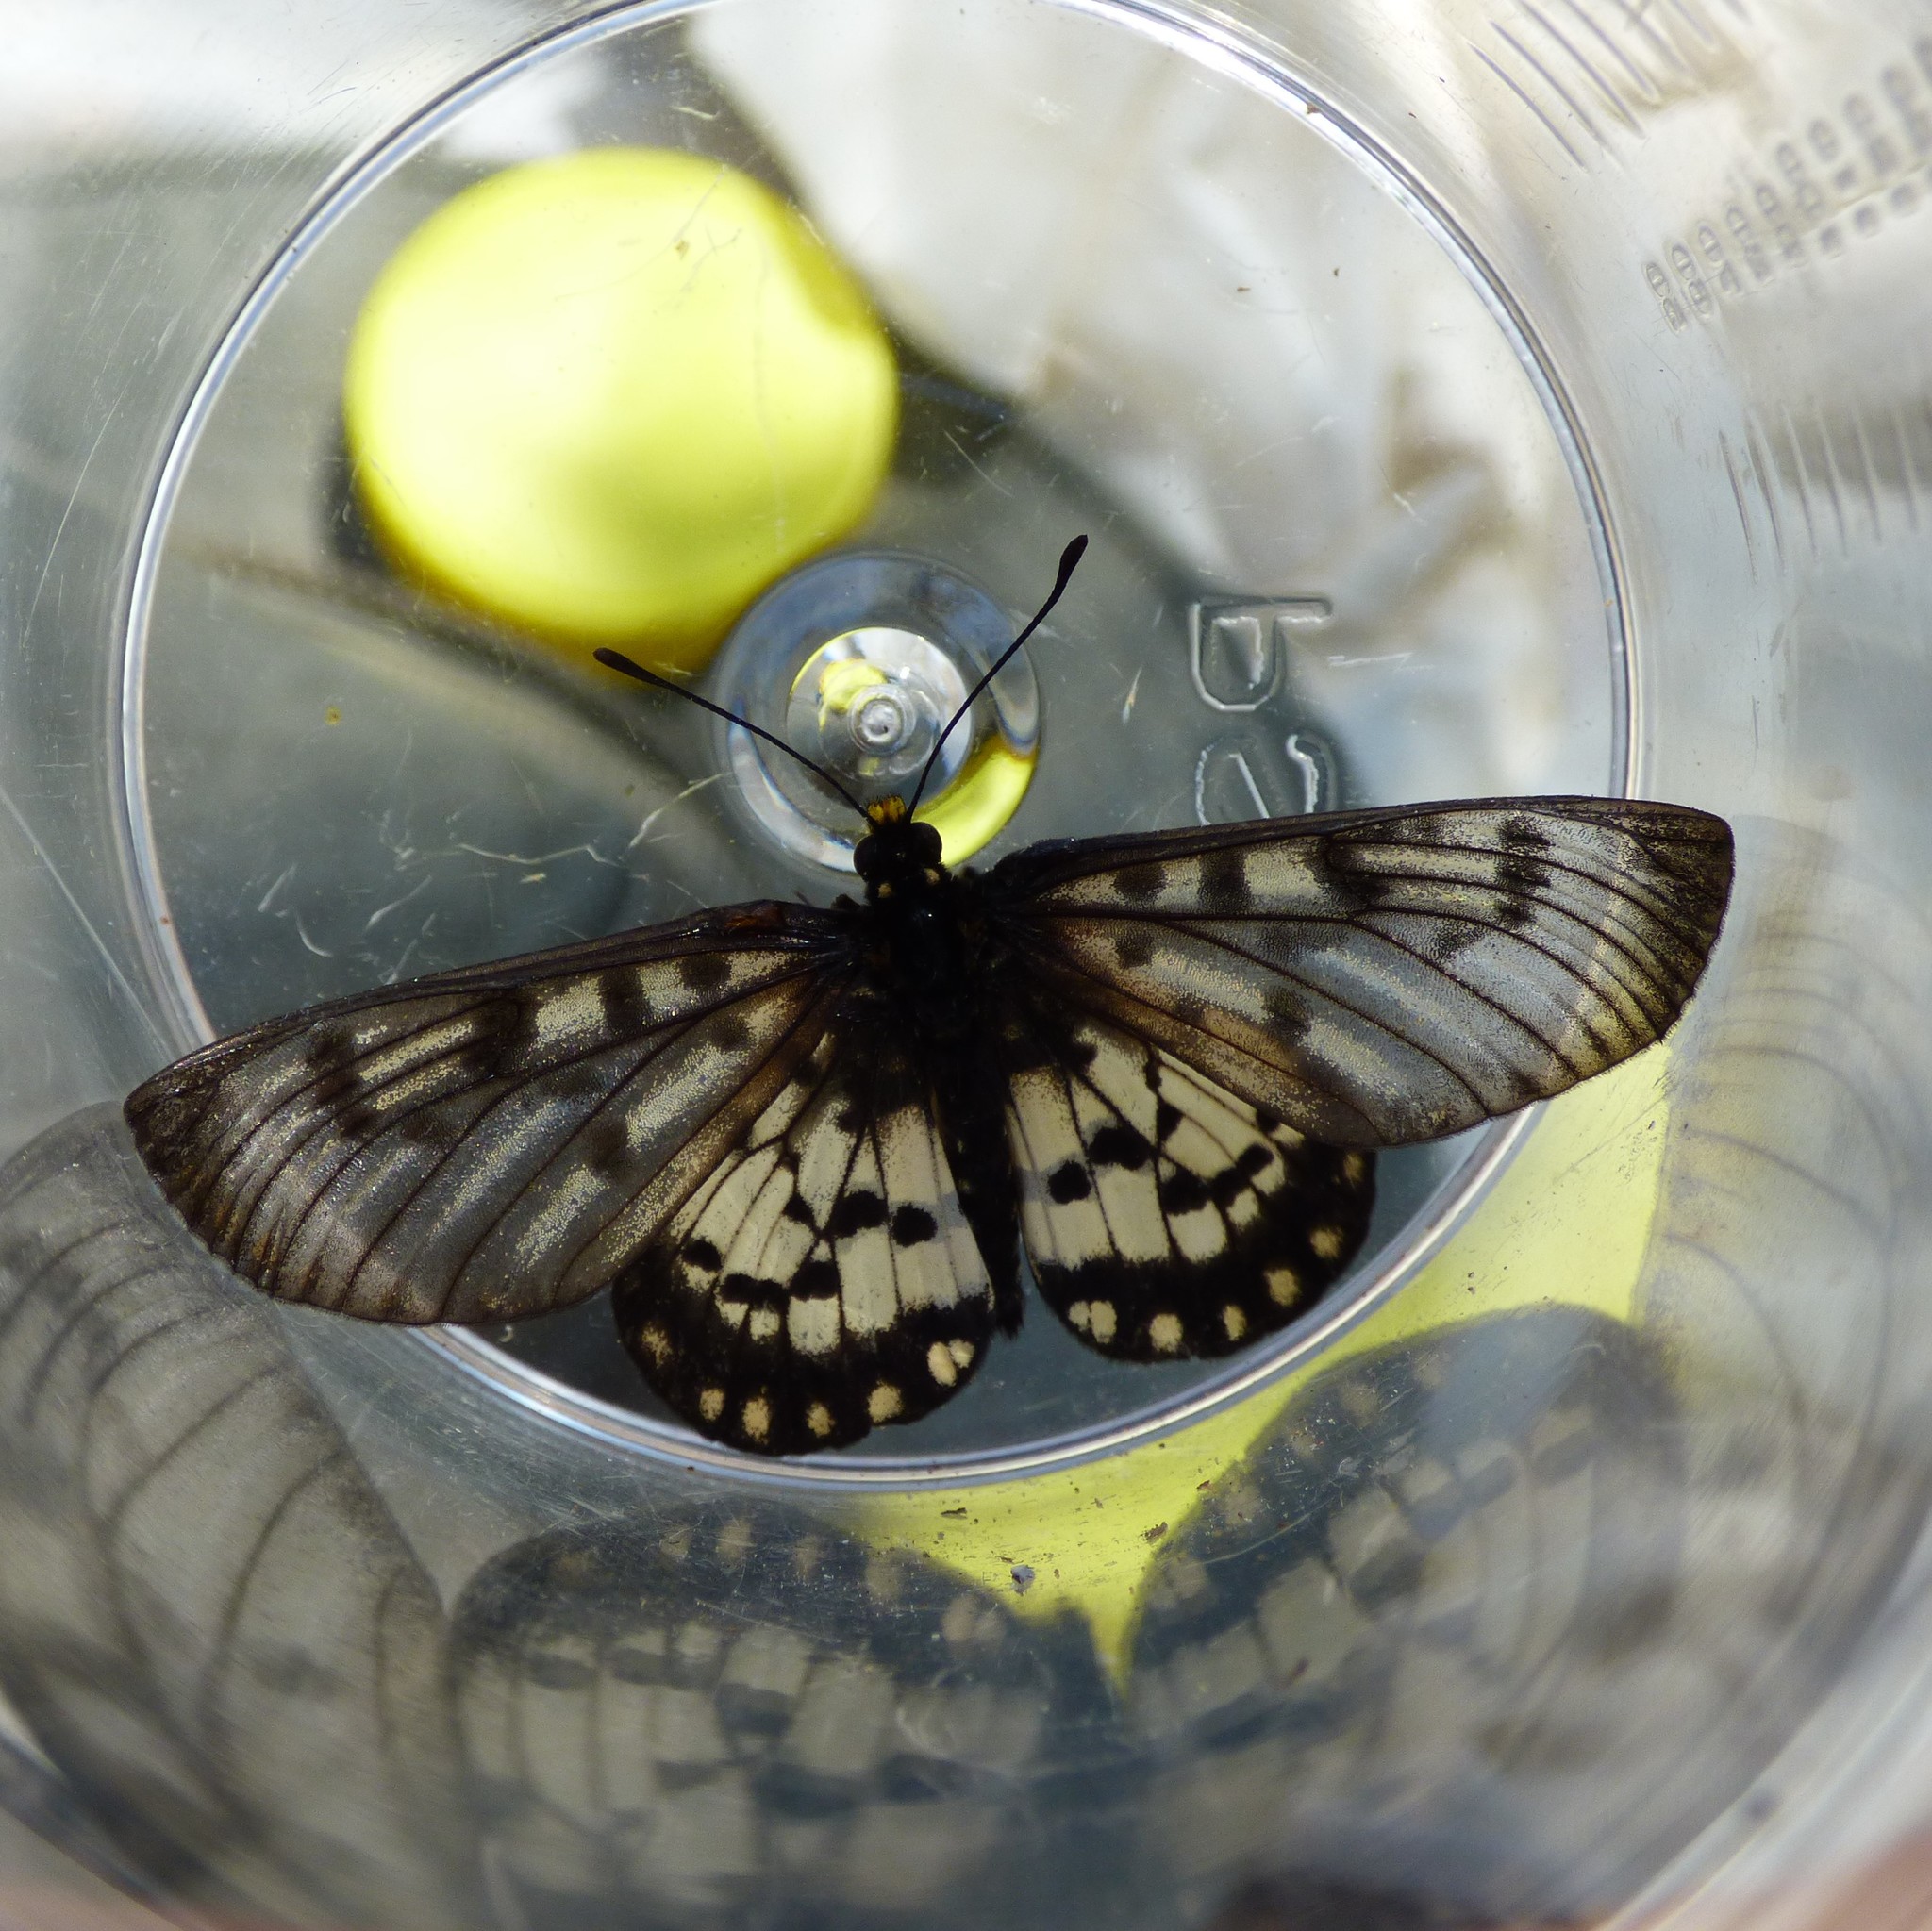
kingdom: Animalia
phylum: Arthropoda
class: Insecta
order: Lepidoptera
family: Nymphalidae
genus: Acraea
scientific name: Acraea andromacha
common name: Glasswing
